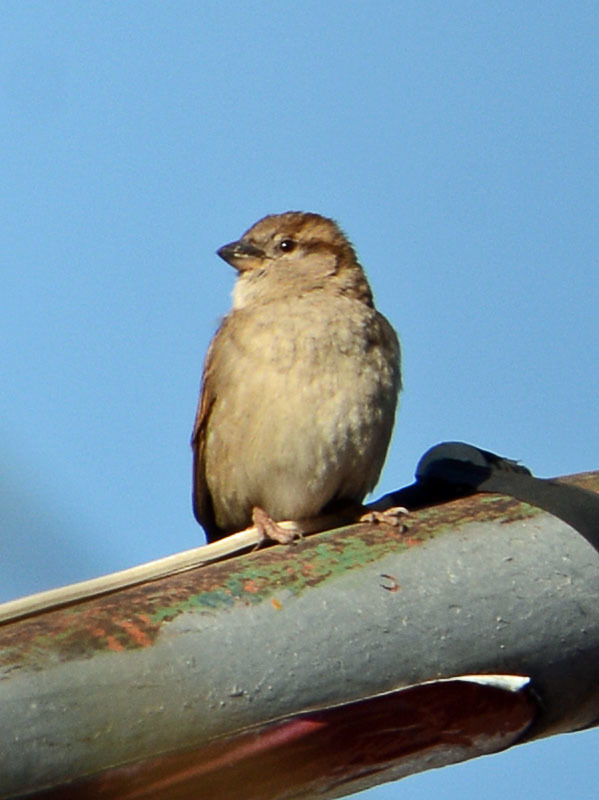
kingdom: Animalia
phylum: Chordata
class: Aves
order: Passeriformes
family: Passeridae
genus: Passer
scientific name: Passer domesticus
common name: House sparrow
